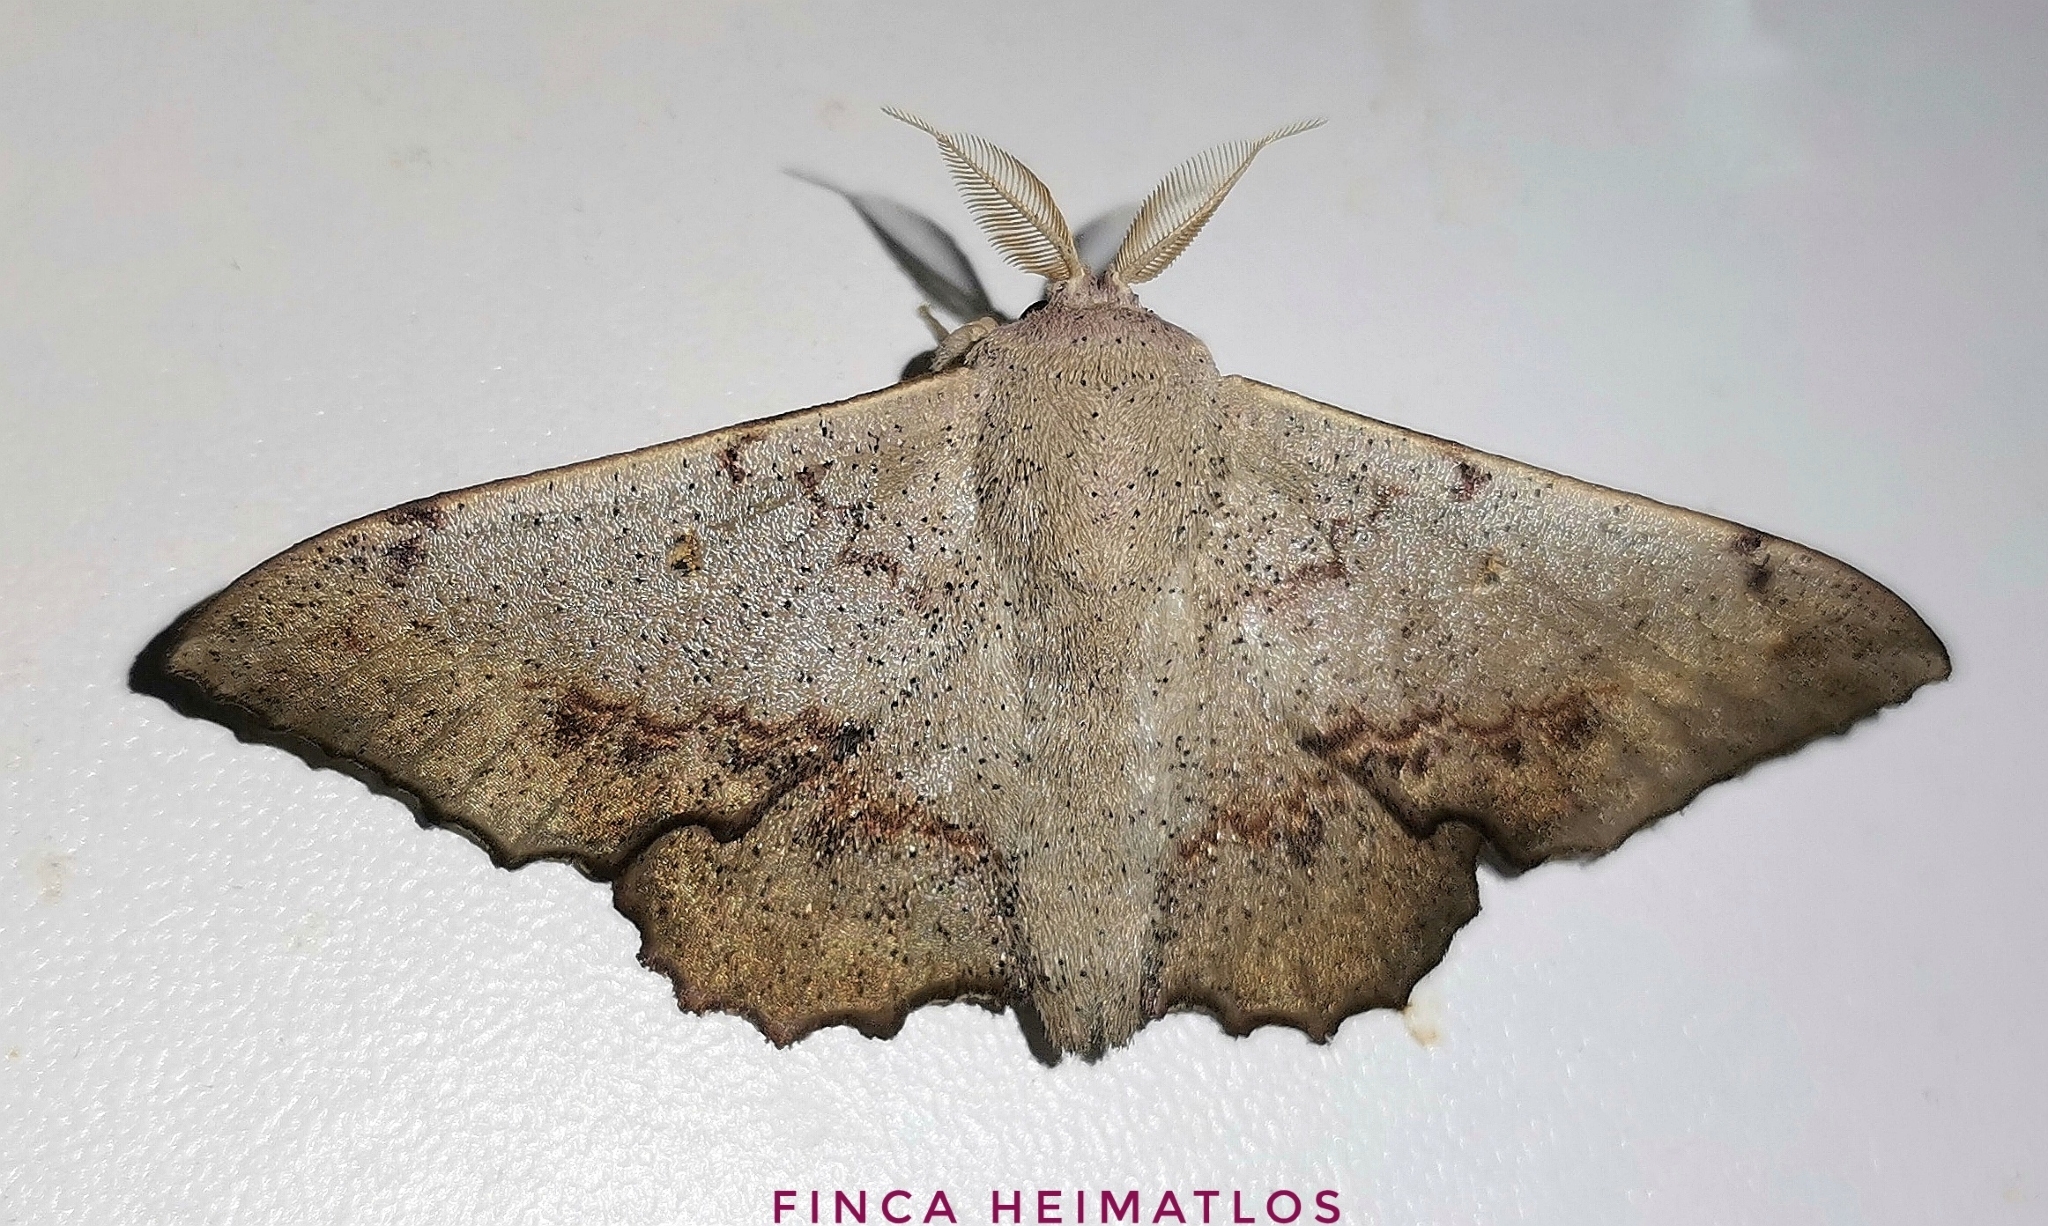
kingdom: Animalia
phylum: Arthropoda
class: Insecta
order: Lepidoptera
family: Mimallonidae
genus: Mimallo
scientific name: Mimallo brosica
